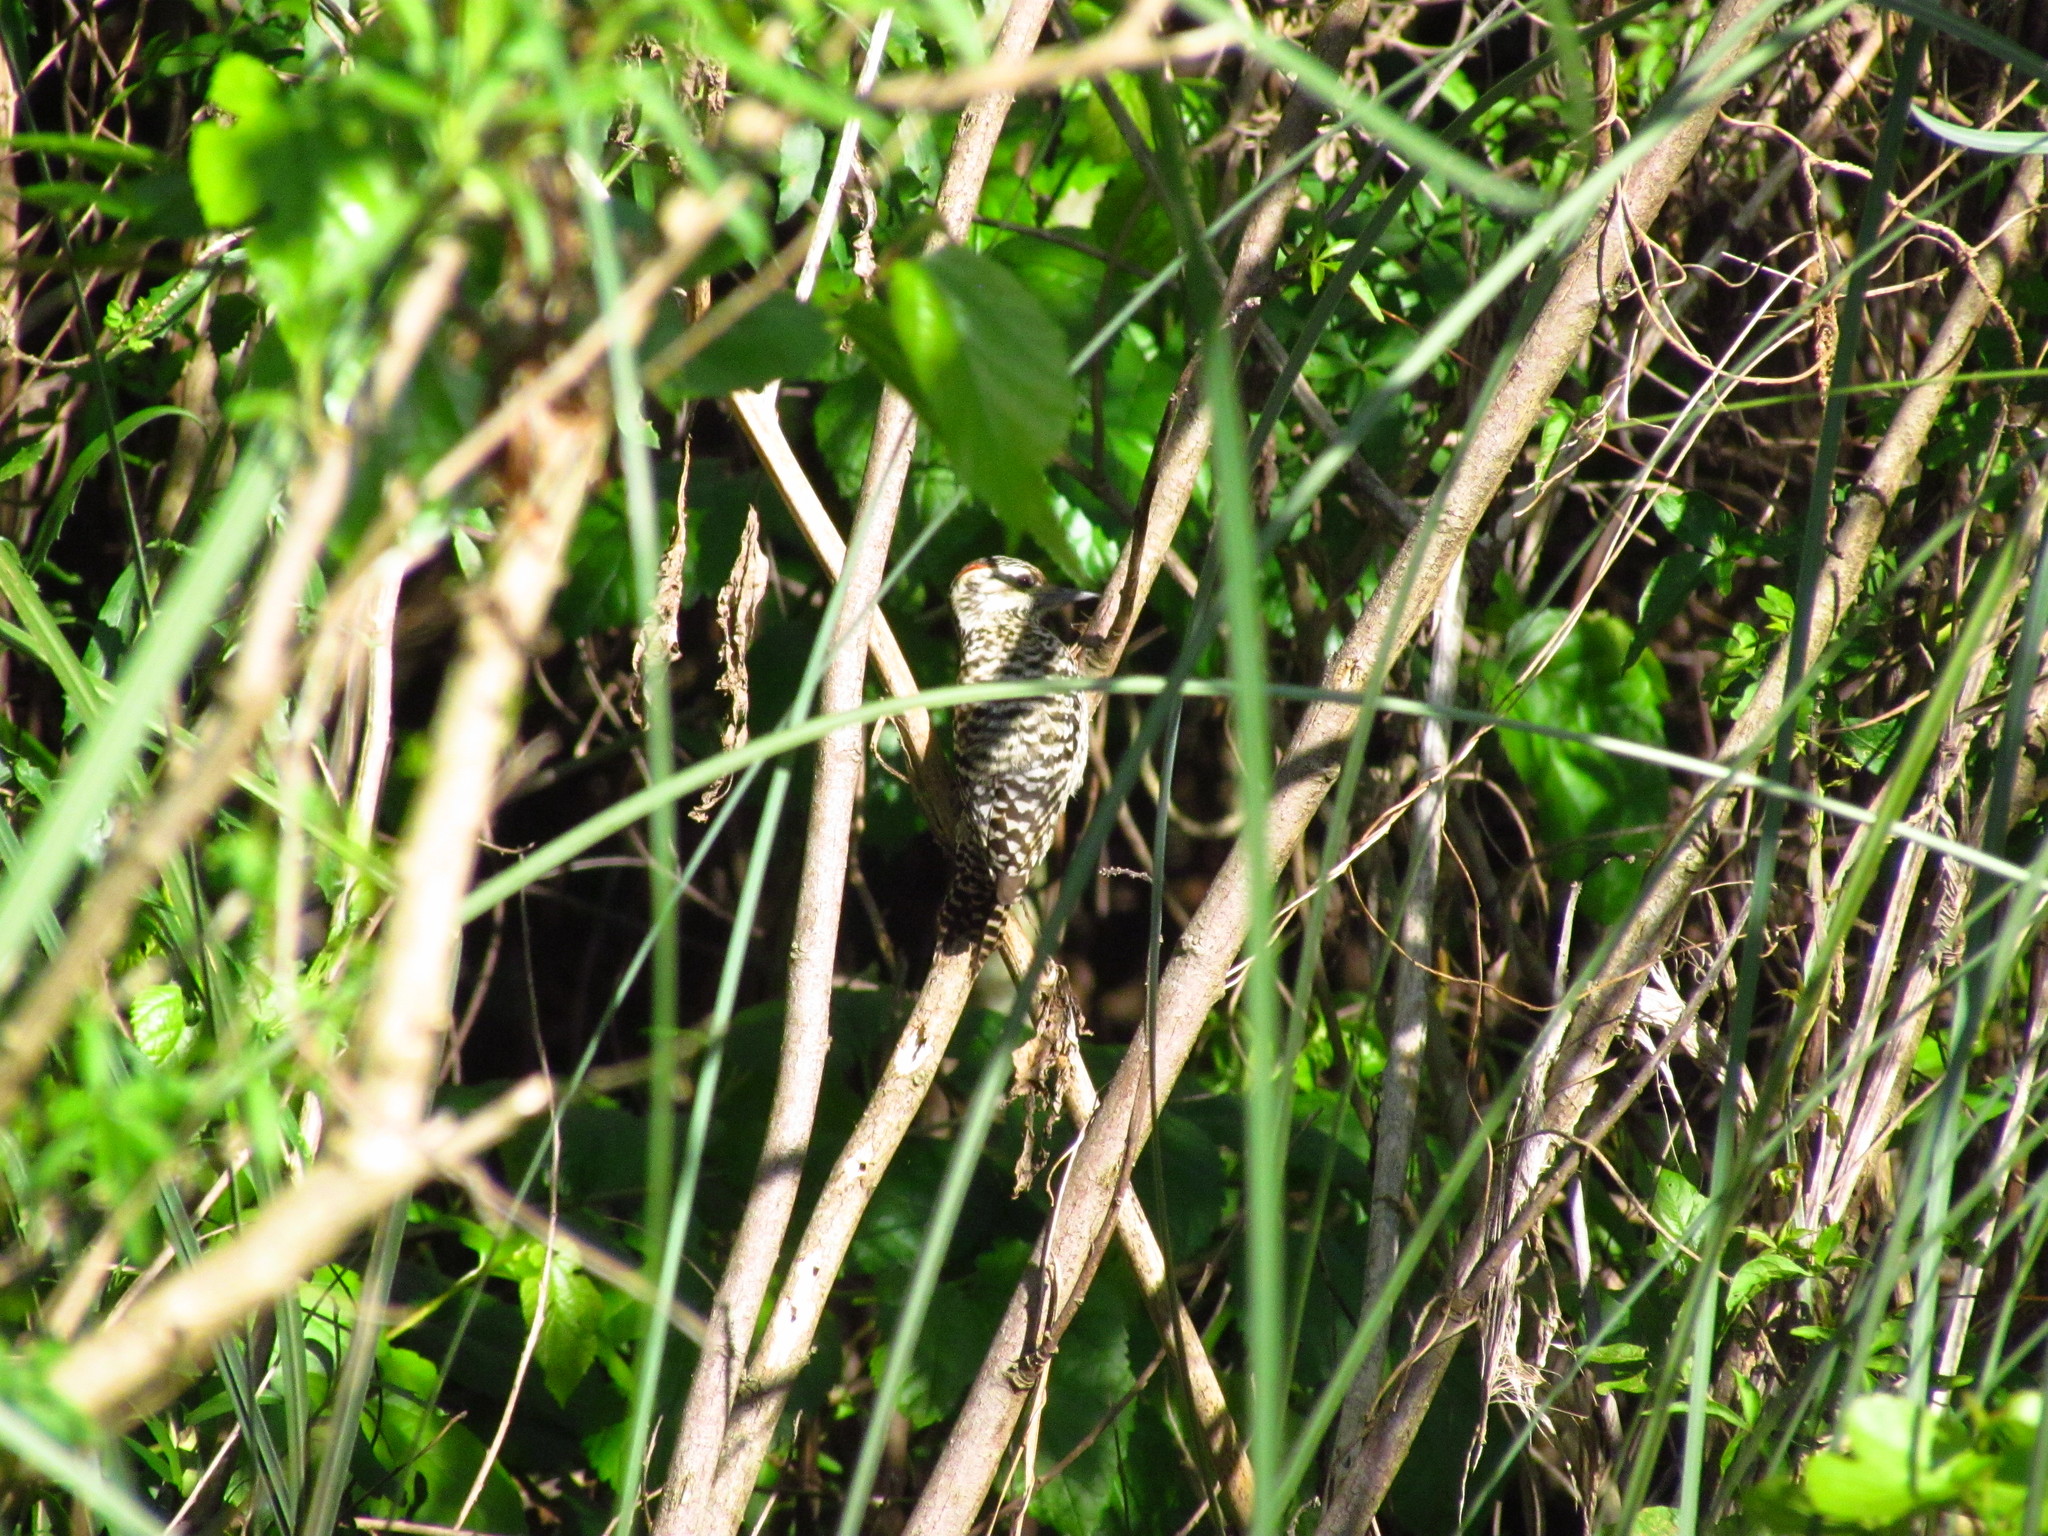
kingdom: Animalia
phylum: Chordata
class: Aves
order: Piciformes
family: Picidae
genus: Veniliornis
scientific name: Veniliornis mixtus
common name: Checkered woodpecker
